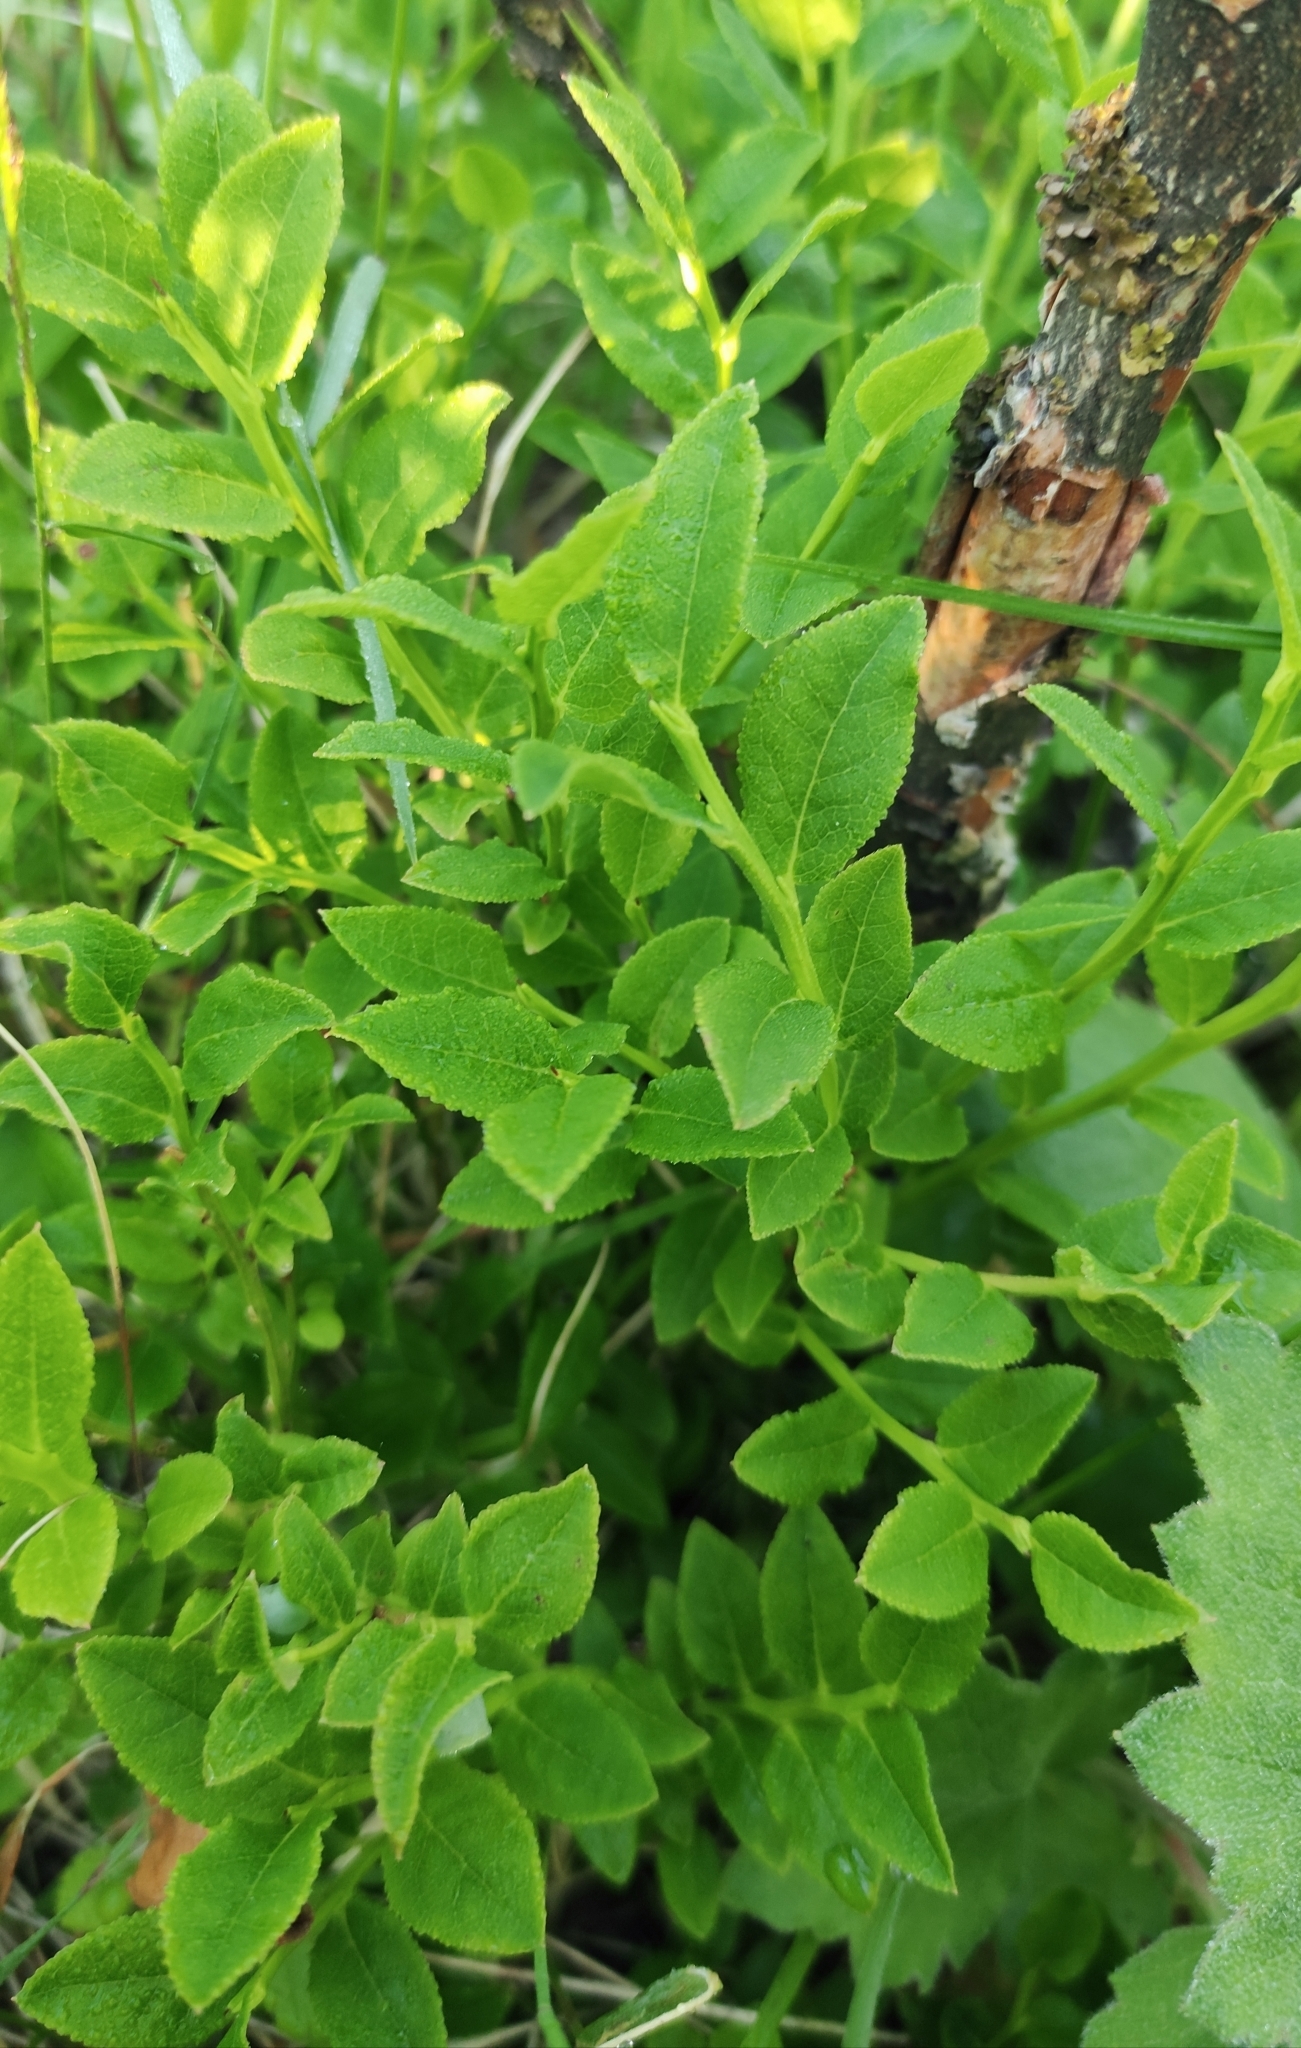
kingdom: Plantae
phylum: Tracheophyta
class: Magnoliopsida
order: Ericales
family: Ericaceae
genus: Vaccinium
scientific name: Vaccinium myrtillus
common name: Bilberry
